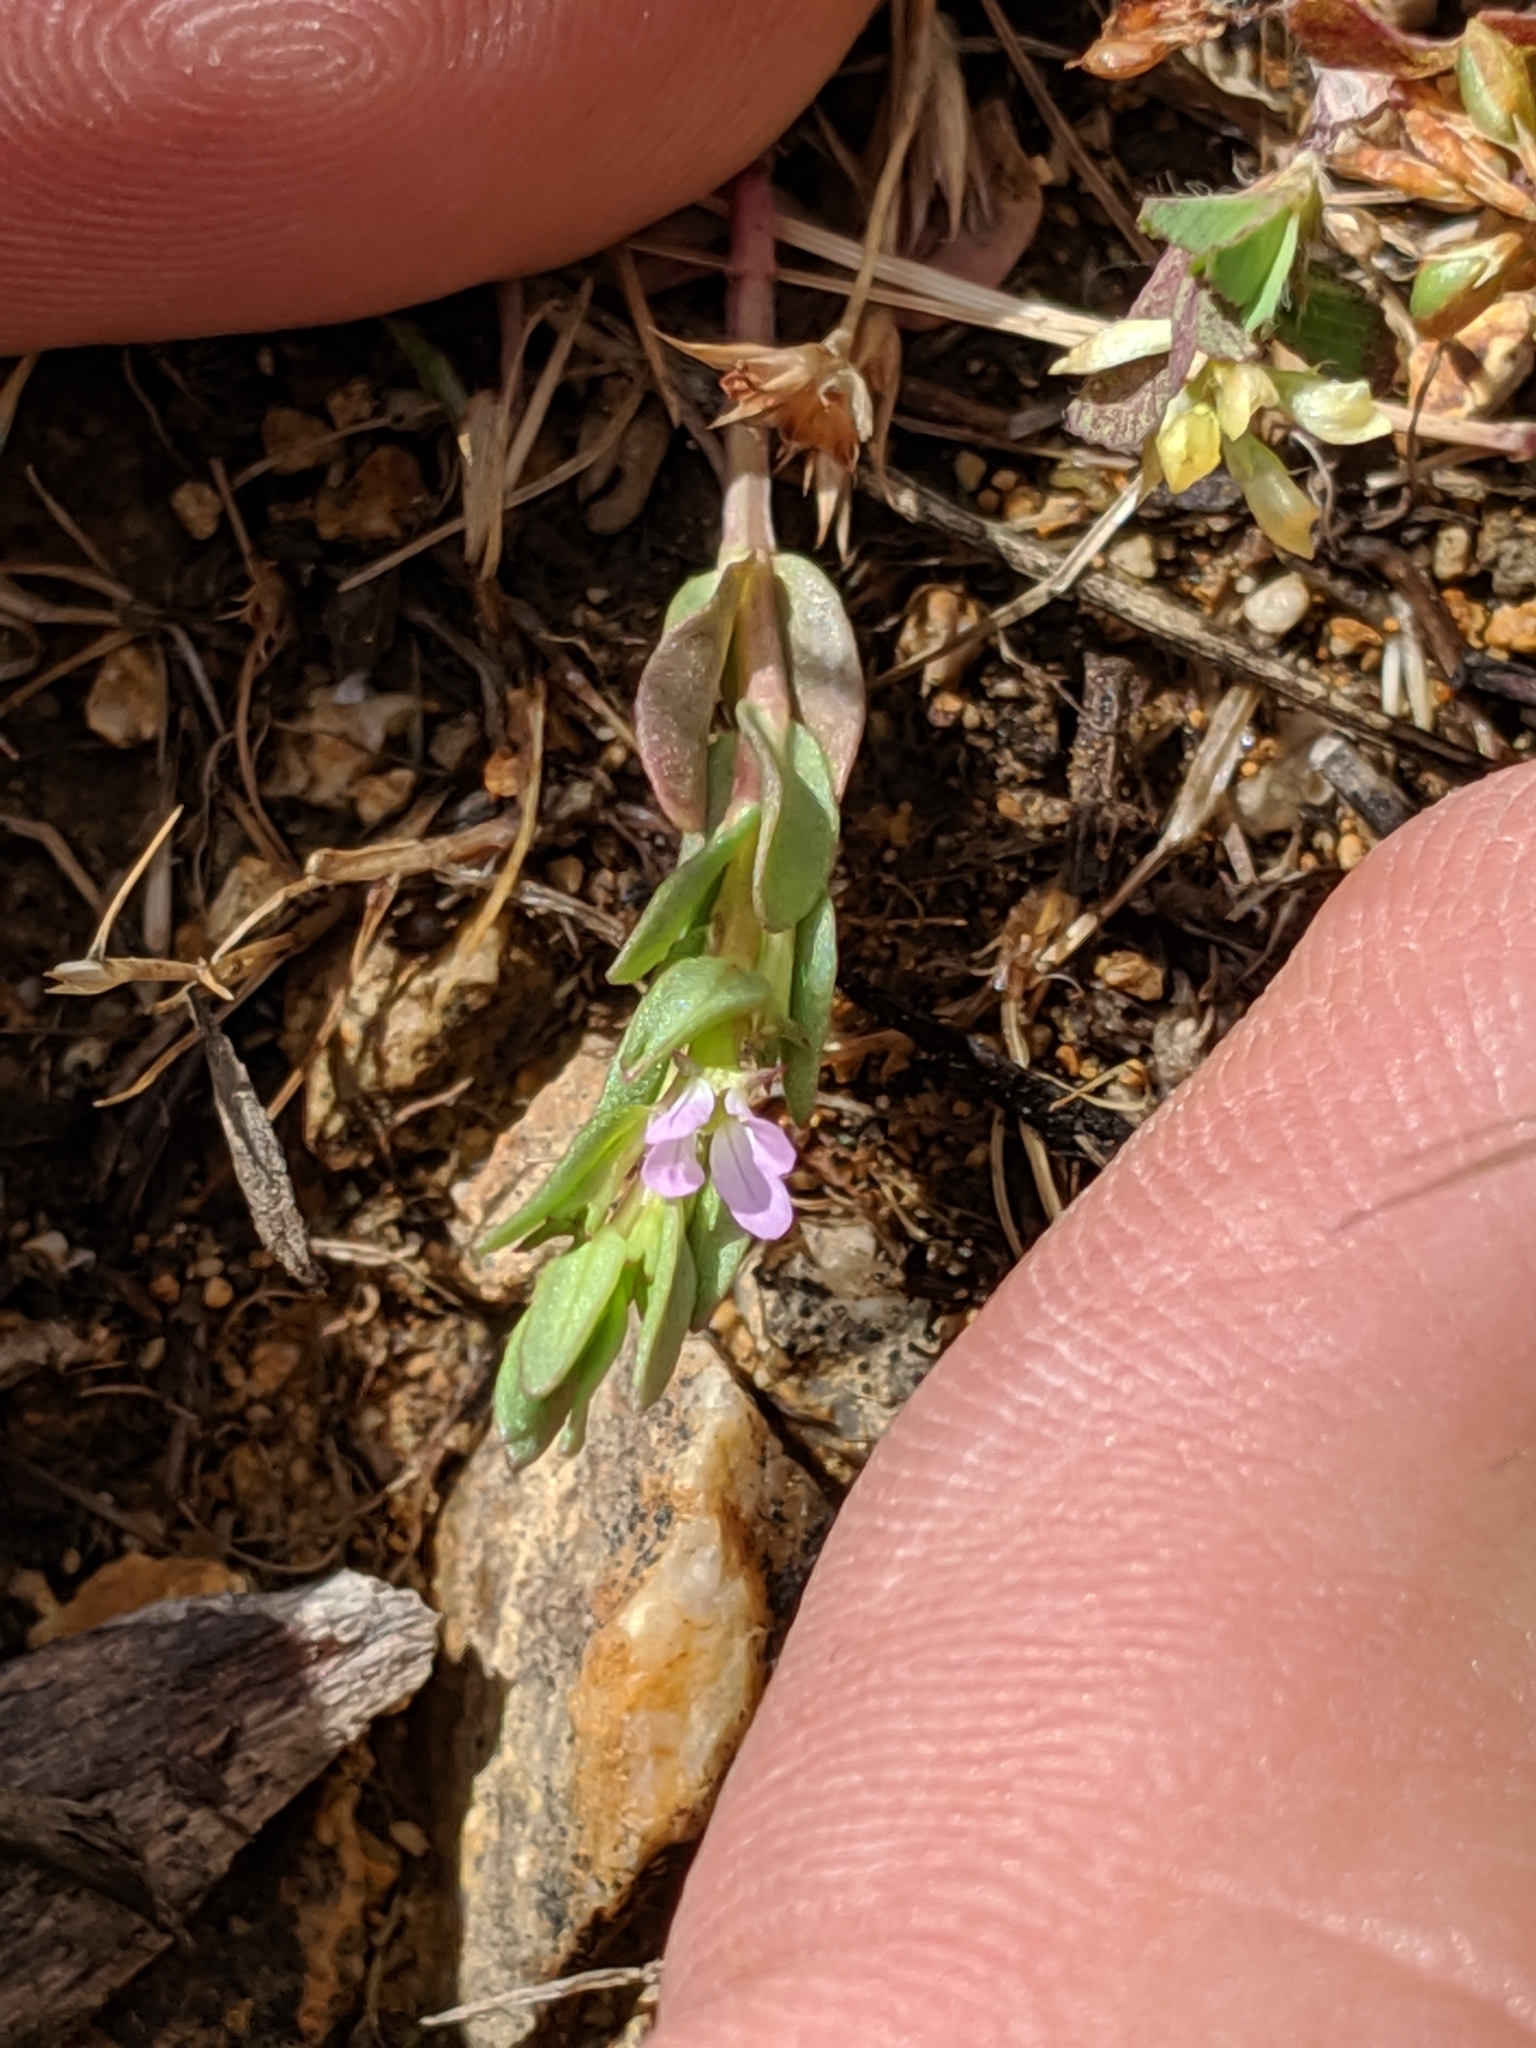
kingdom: Plantae
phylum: Tracheophyta
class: Magnoliopsida
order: Myrtales
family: Lythraceae
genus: Lythrum
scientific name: Lythrum hyssopifolia
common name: Grass-poly
